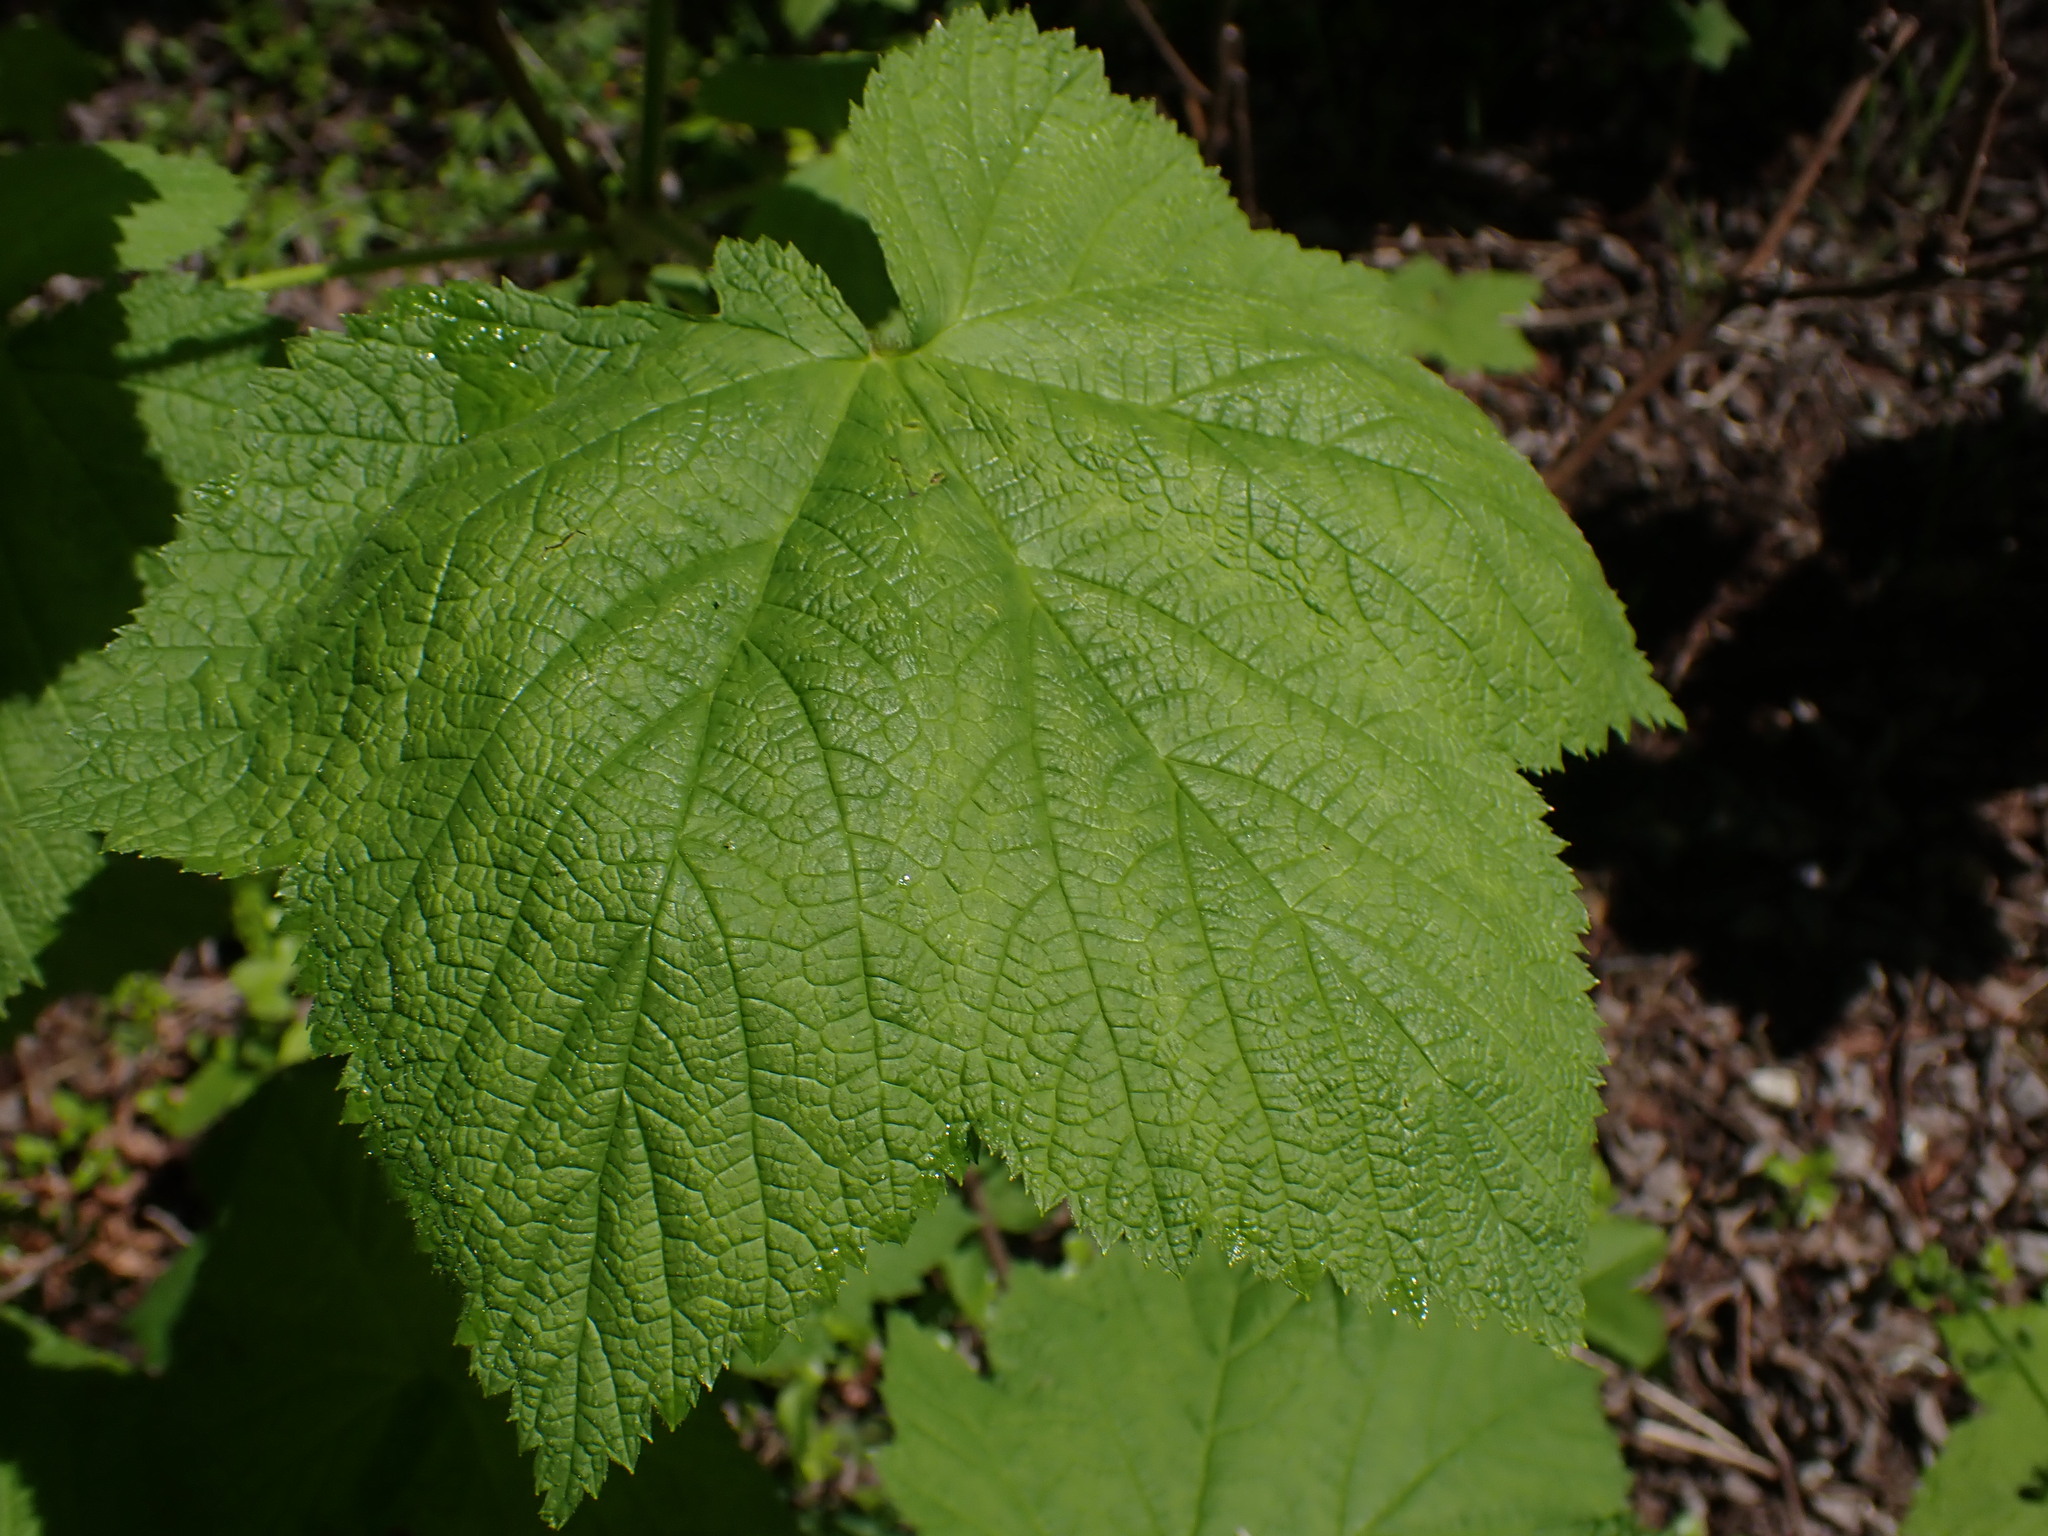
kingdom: Plantae
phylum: Tracheophyta
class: Magnoliopsida
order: Rosales
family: Rosaceae
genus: Rubus
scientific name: Rubus parviflorus
